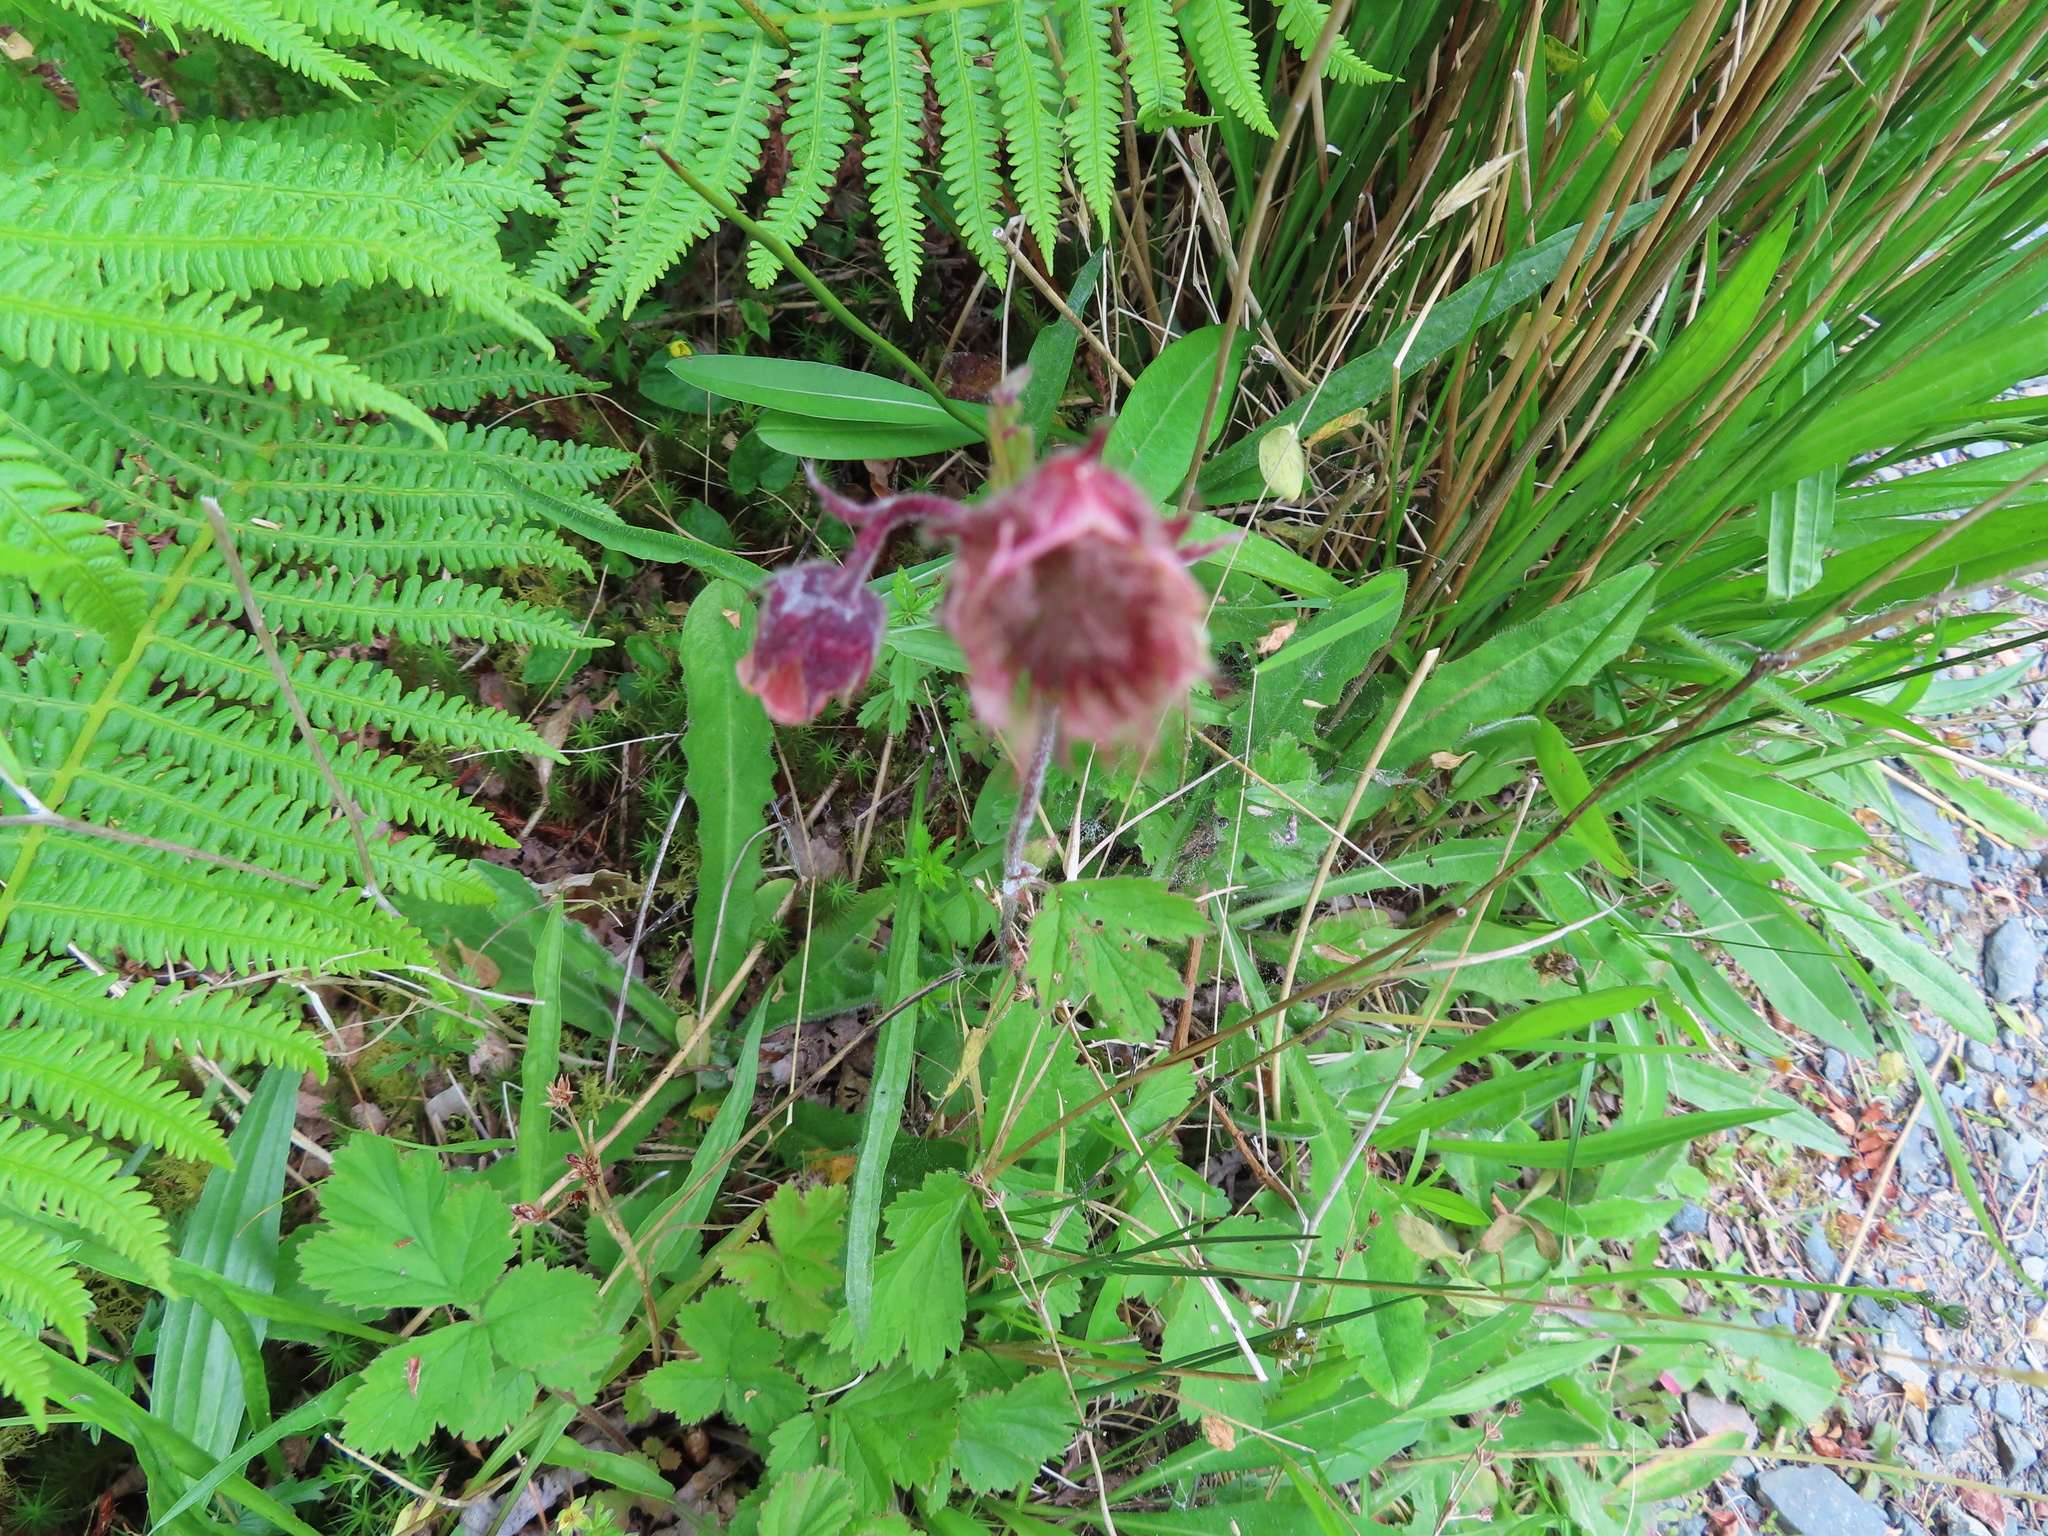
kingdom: Plantae
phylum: Tracheophyta
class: Magnoliopsida
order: Rosales
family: Rosaceae
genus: Geum
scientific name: Geum rivale
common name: Water avens
